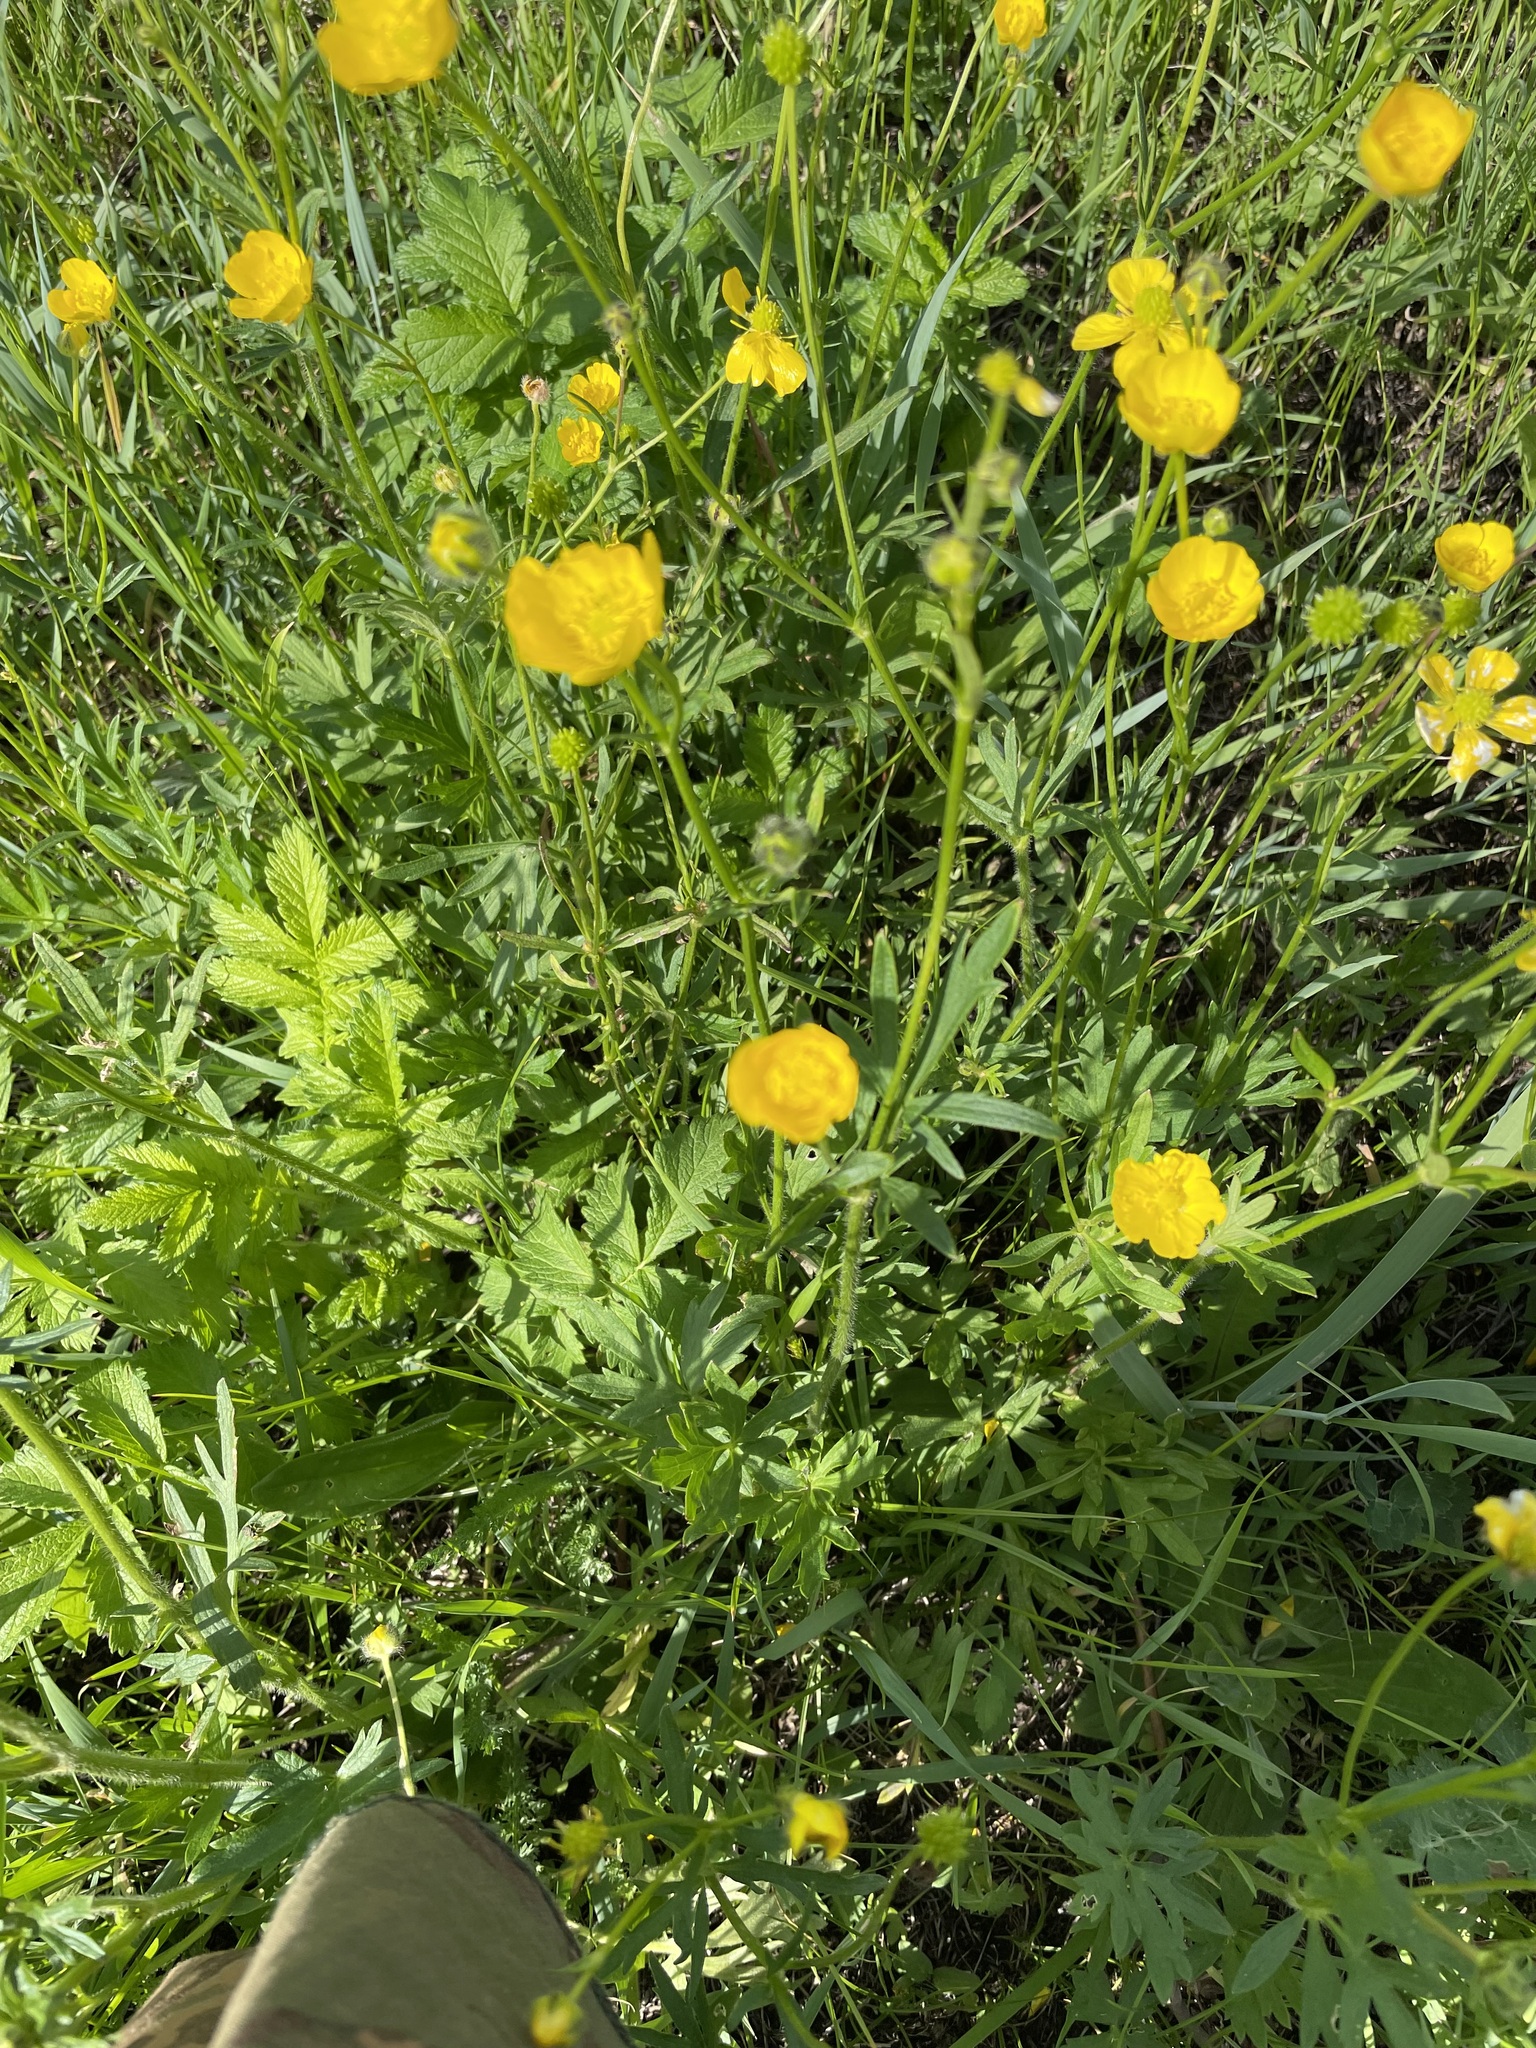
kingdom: Plantae
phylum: Tracheophyta
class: Magnoliopsida
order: Ranunculales
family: Ranunculaceae
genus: Ranunculus
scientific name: Ranunculus polyanthemos
